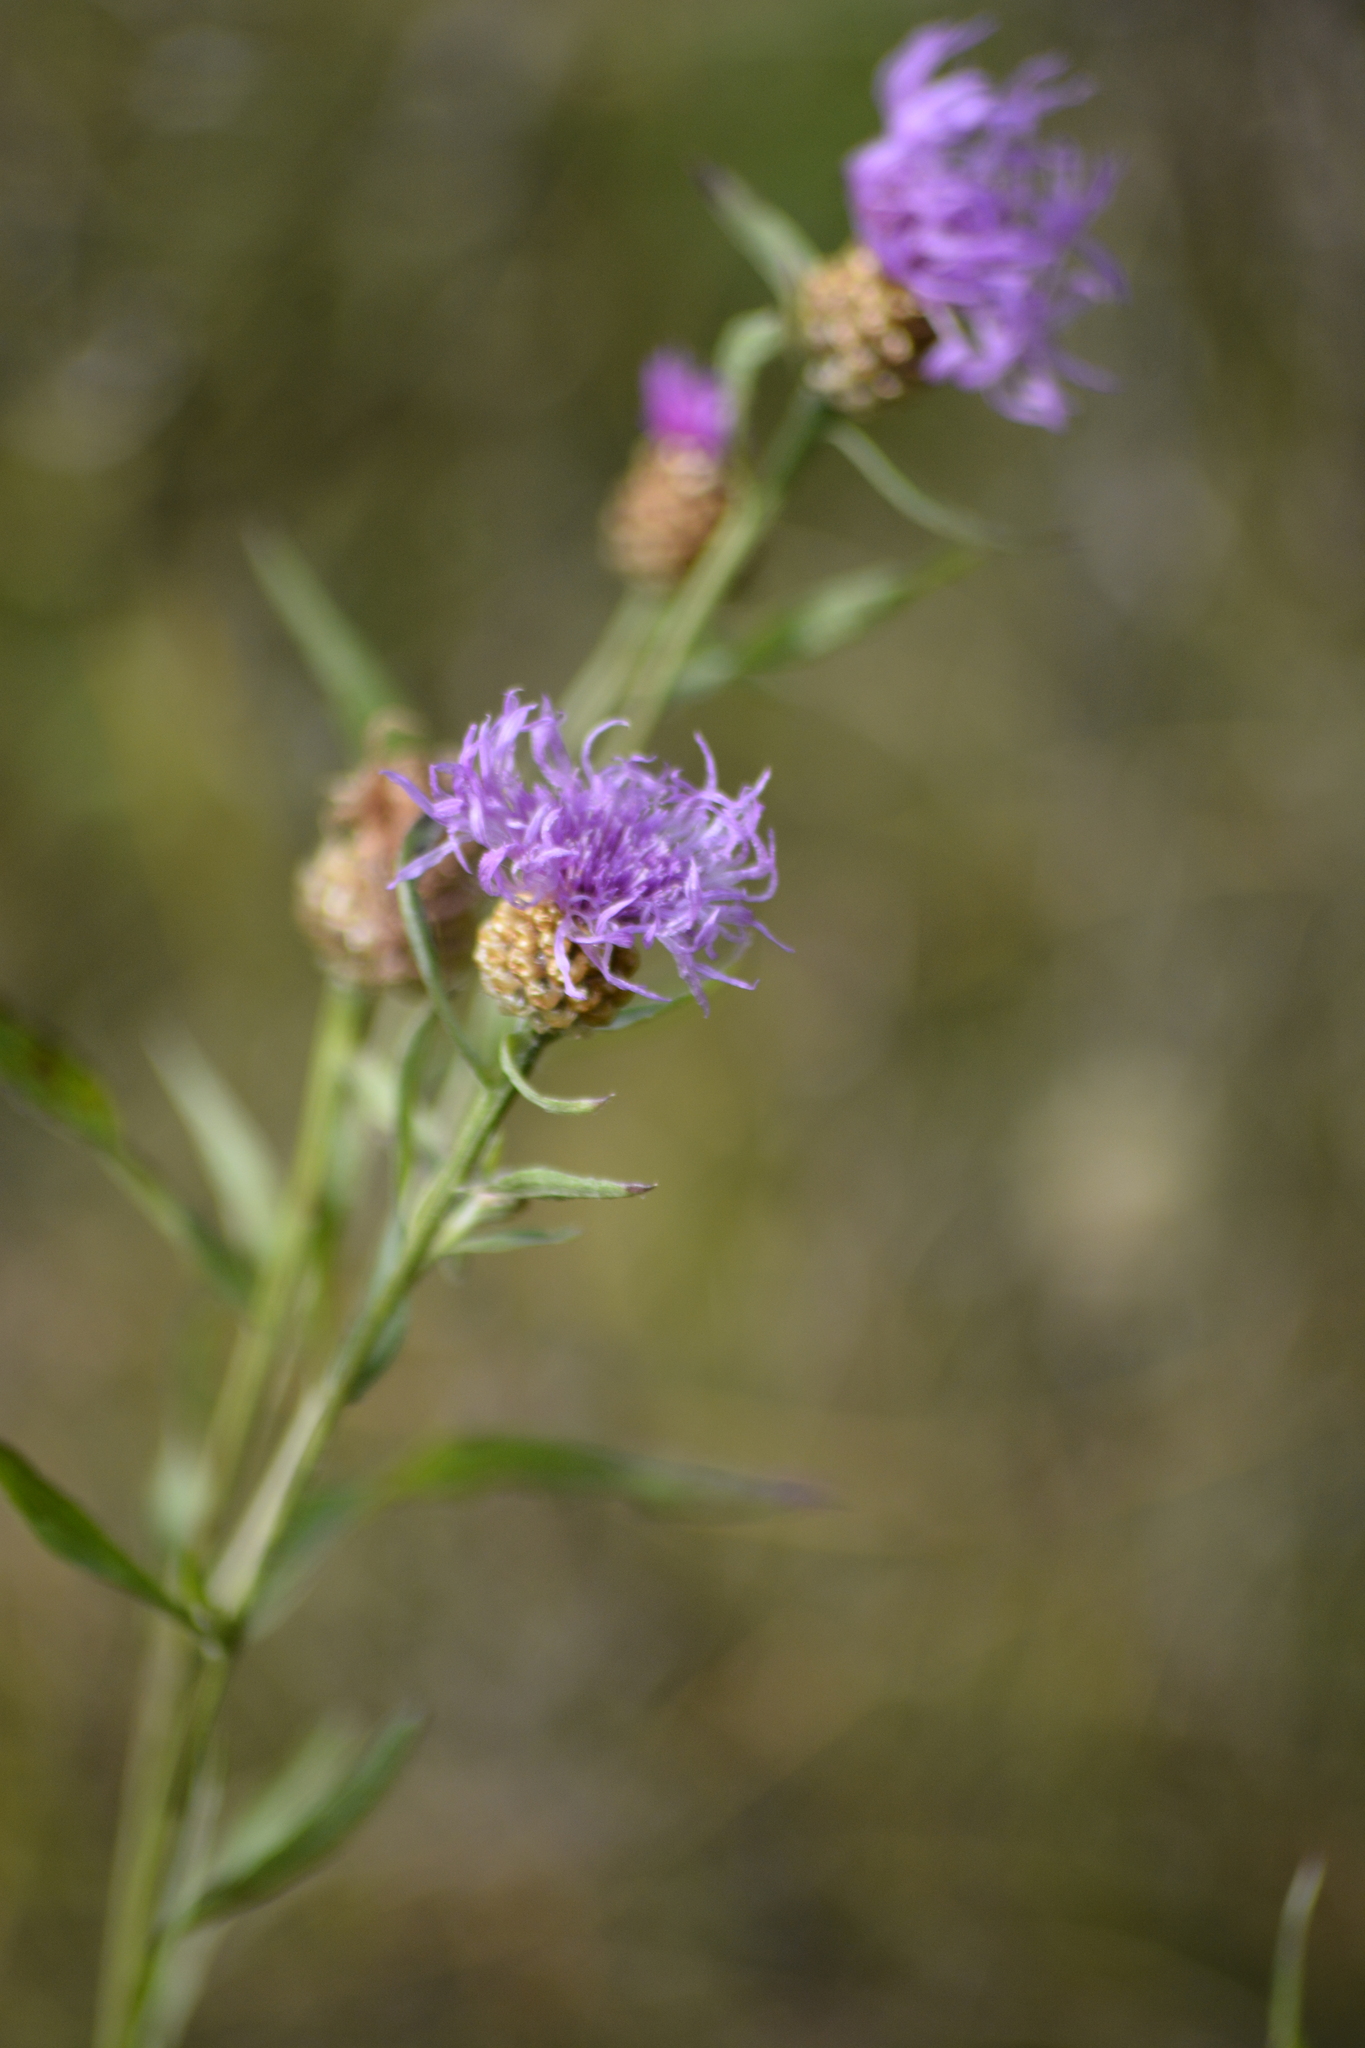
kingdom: Plantae
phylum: Tracheophyta
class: Magnoliopsida
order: Asterales
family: Asteraceae
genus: Centaurea
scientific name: Centaurea jacea
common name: Brown knapweed
